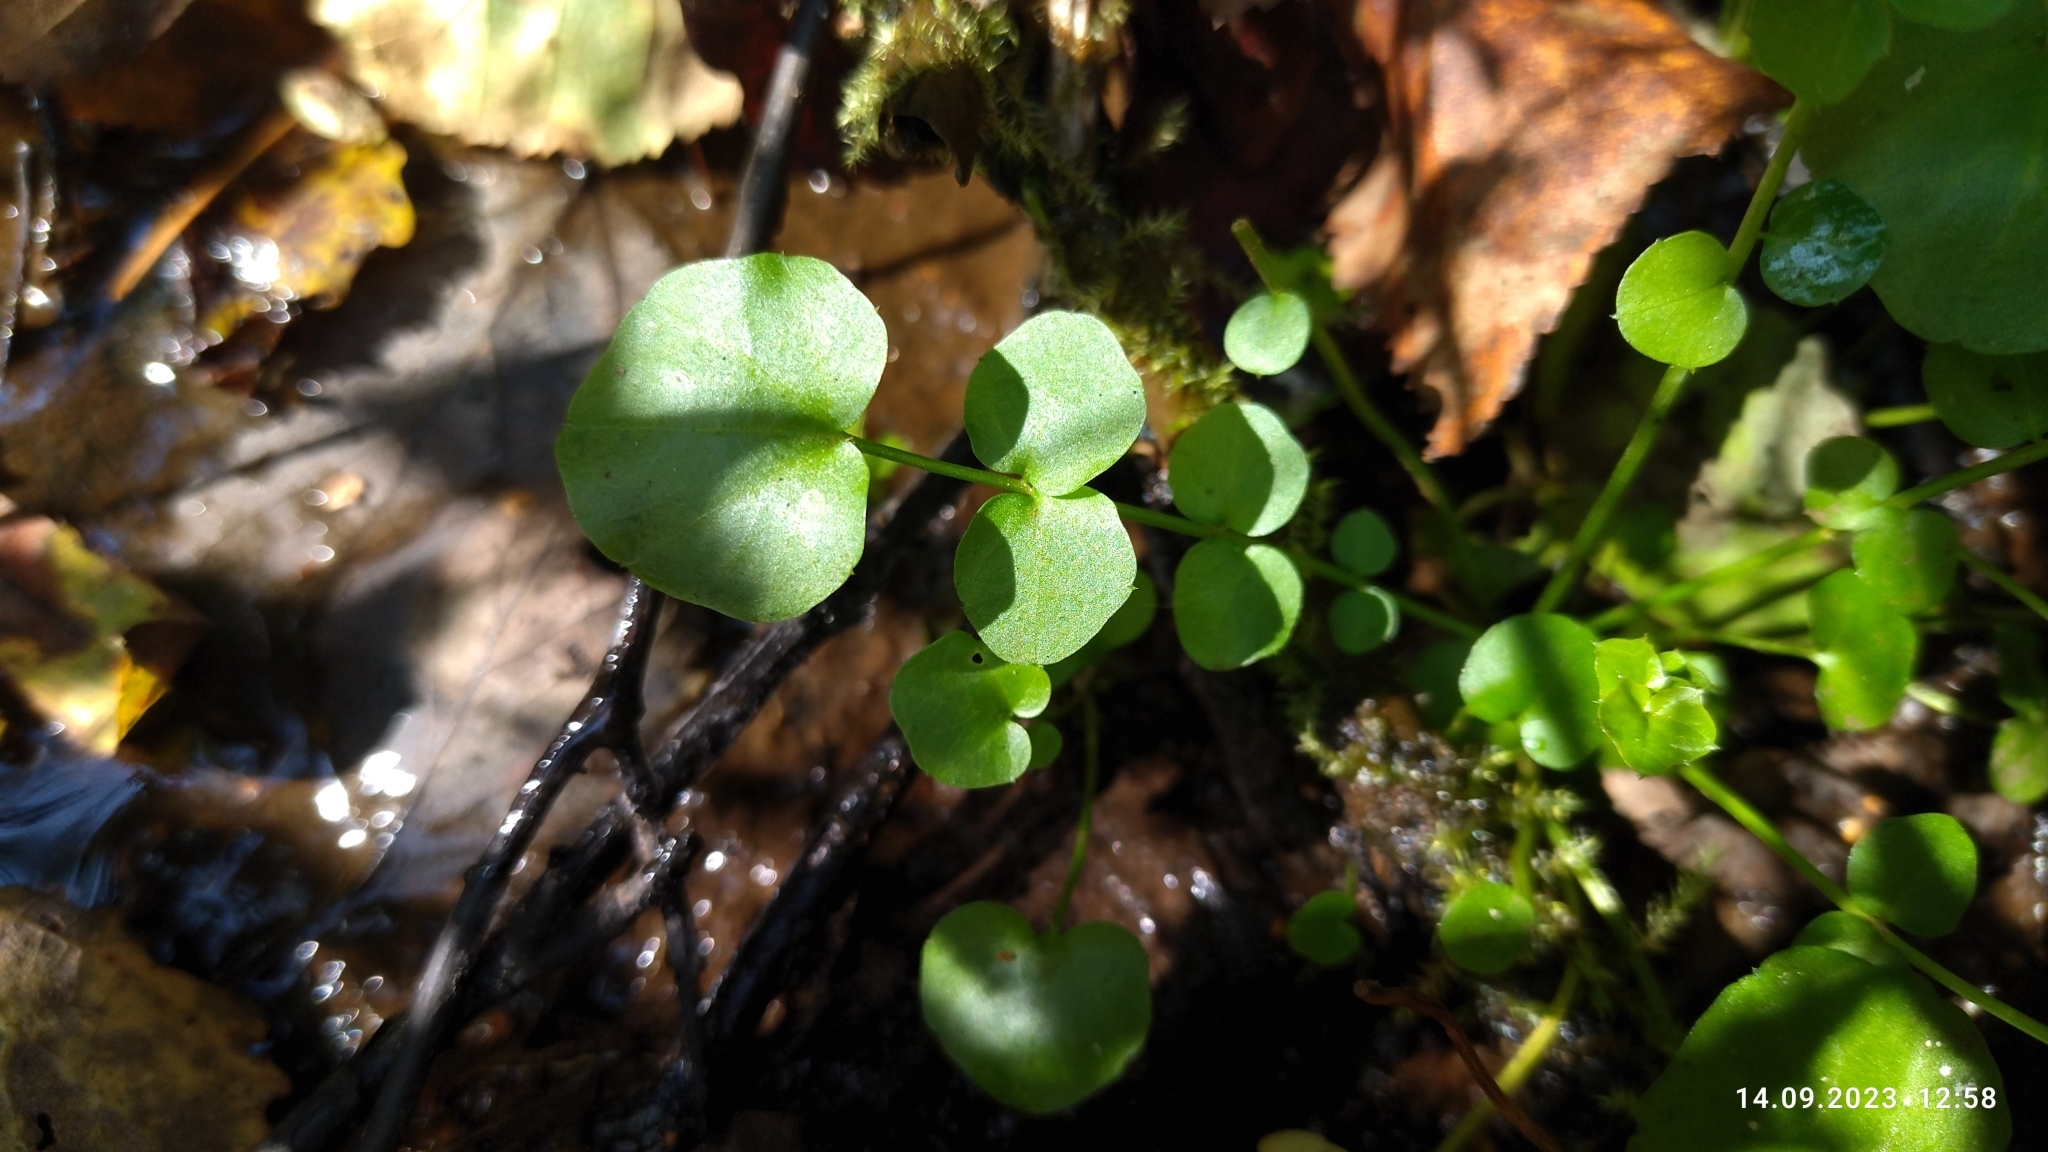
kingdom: Plantae
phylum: Tracheophyta
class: Magnoliopsida
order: Brassicales
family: Brassicaceae
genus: Cardamine
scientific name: Cardamine dentata
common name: Toothed bittercress
